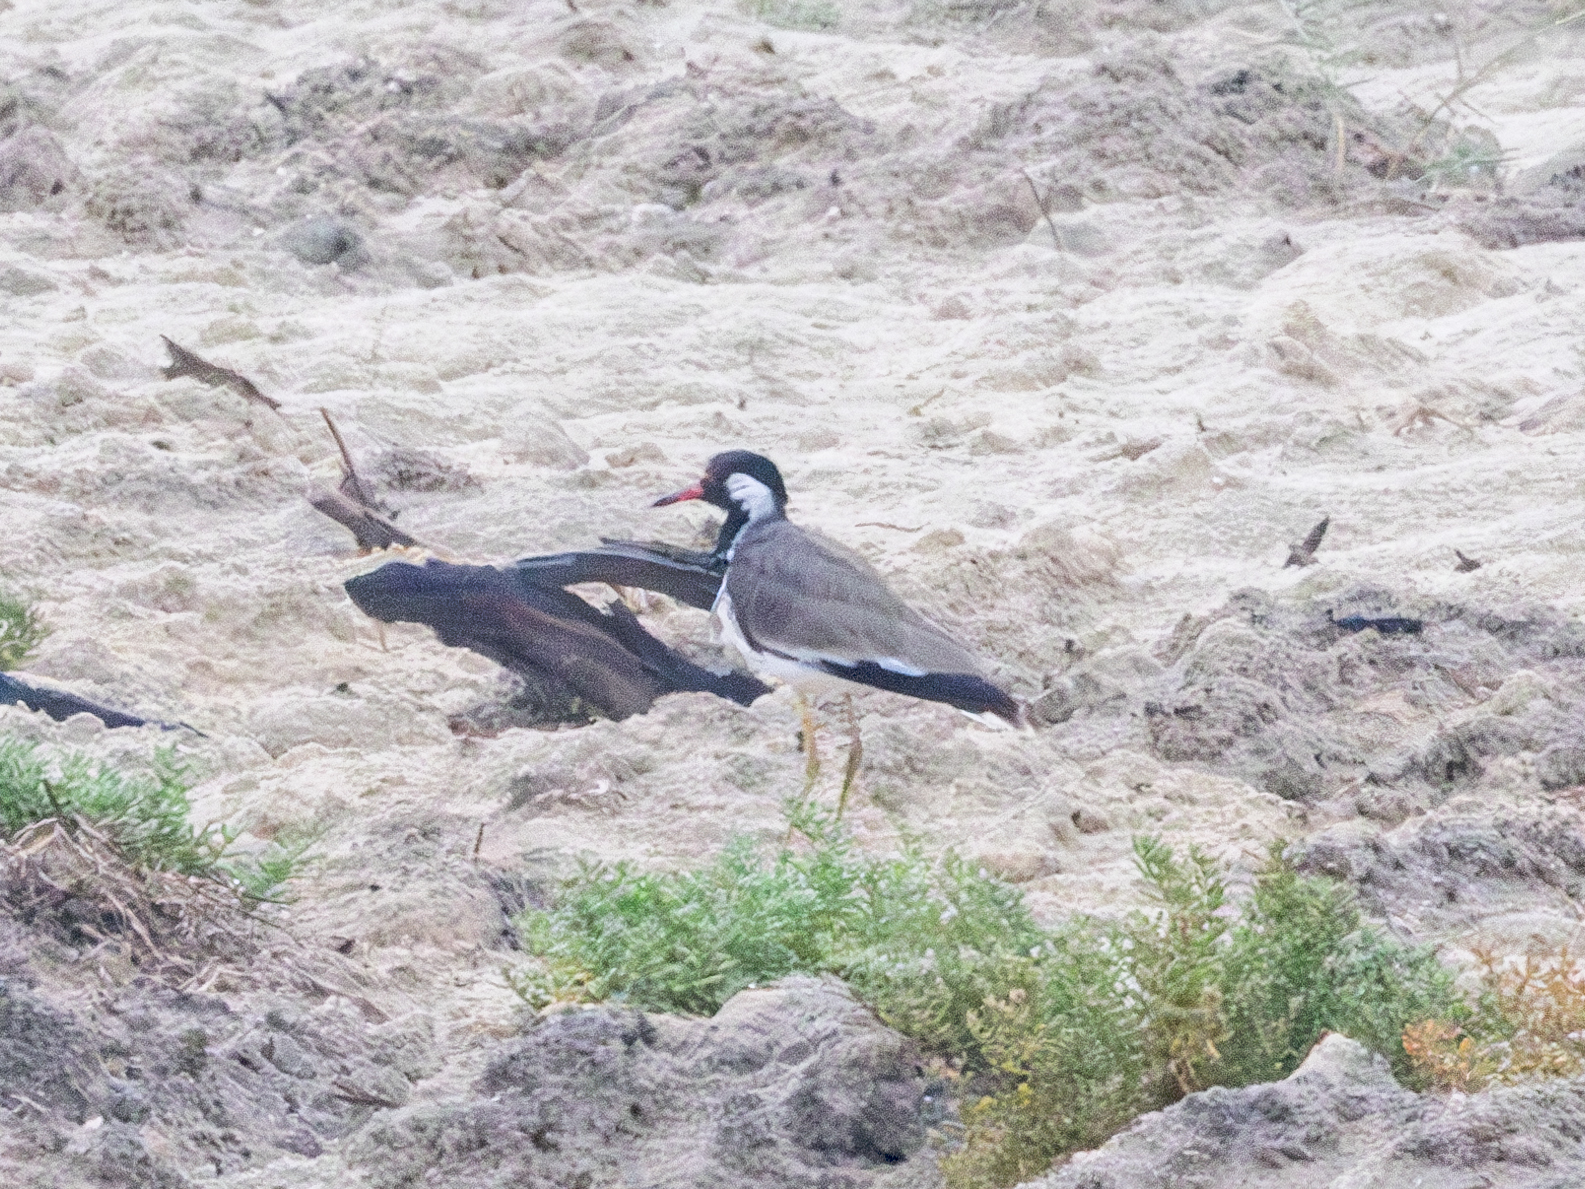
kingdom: Animalia
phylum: Chordata
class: Aves
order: Charadriiformes
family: Charadriidae
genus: Vanellus
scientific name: Vanellus indicus
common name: Red-wattled lapwing
